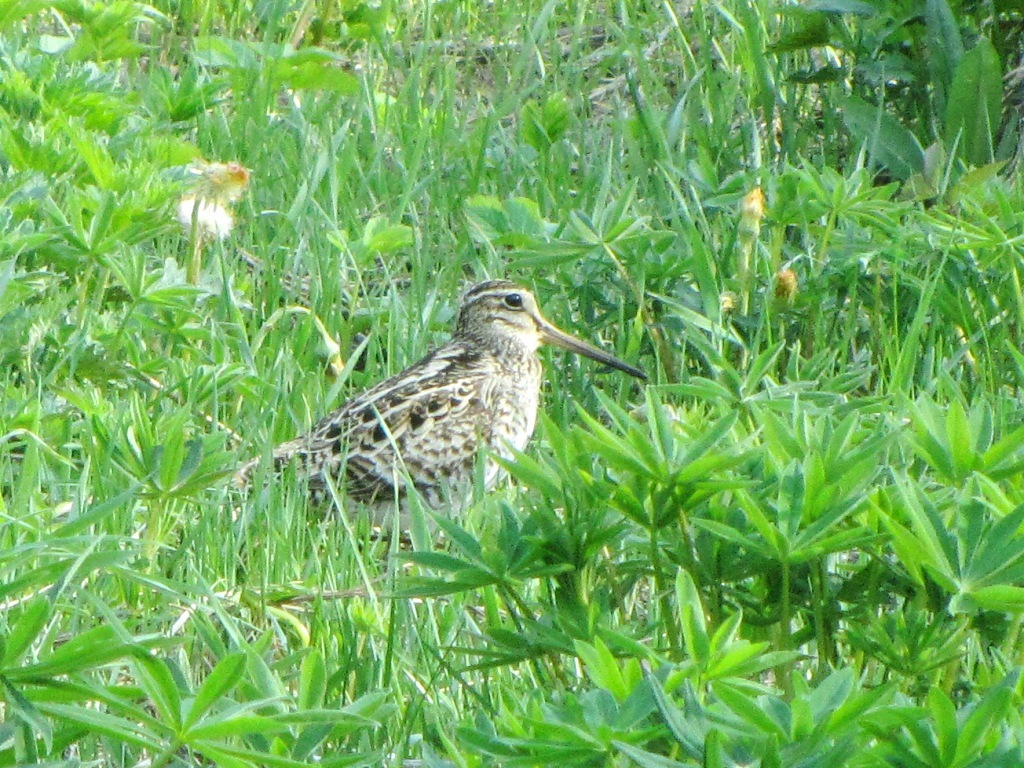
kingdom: Animalia
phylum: Chordata
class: Aves
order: Charadriiformes
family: Scolopacidae
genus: Gallinago
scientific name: Gallinago megala
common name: Swinhoe's snipe
